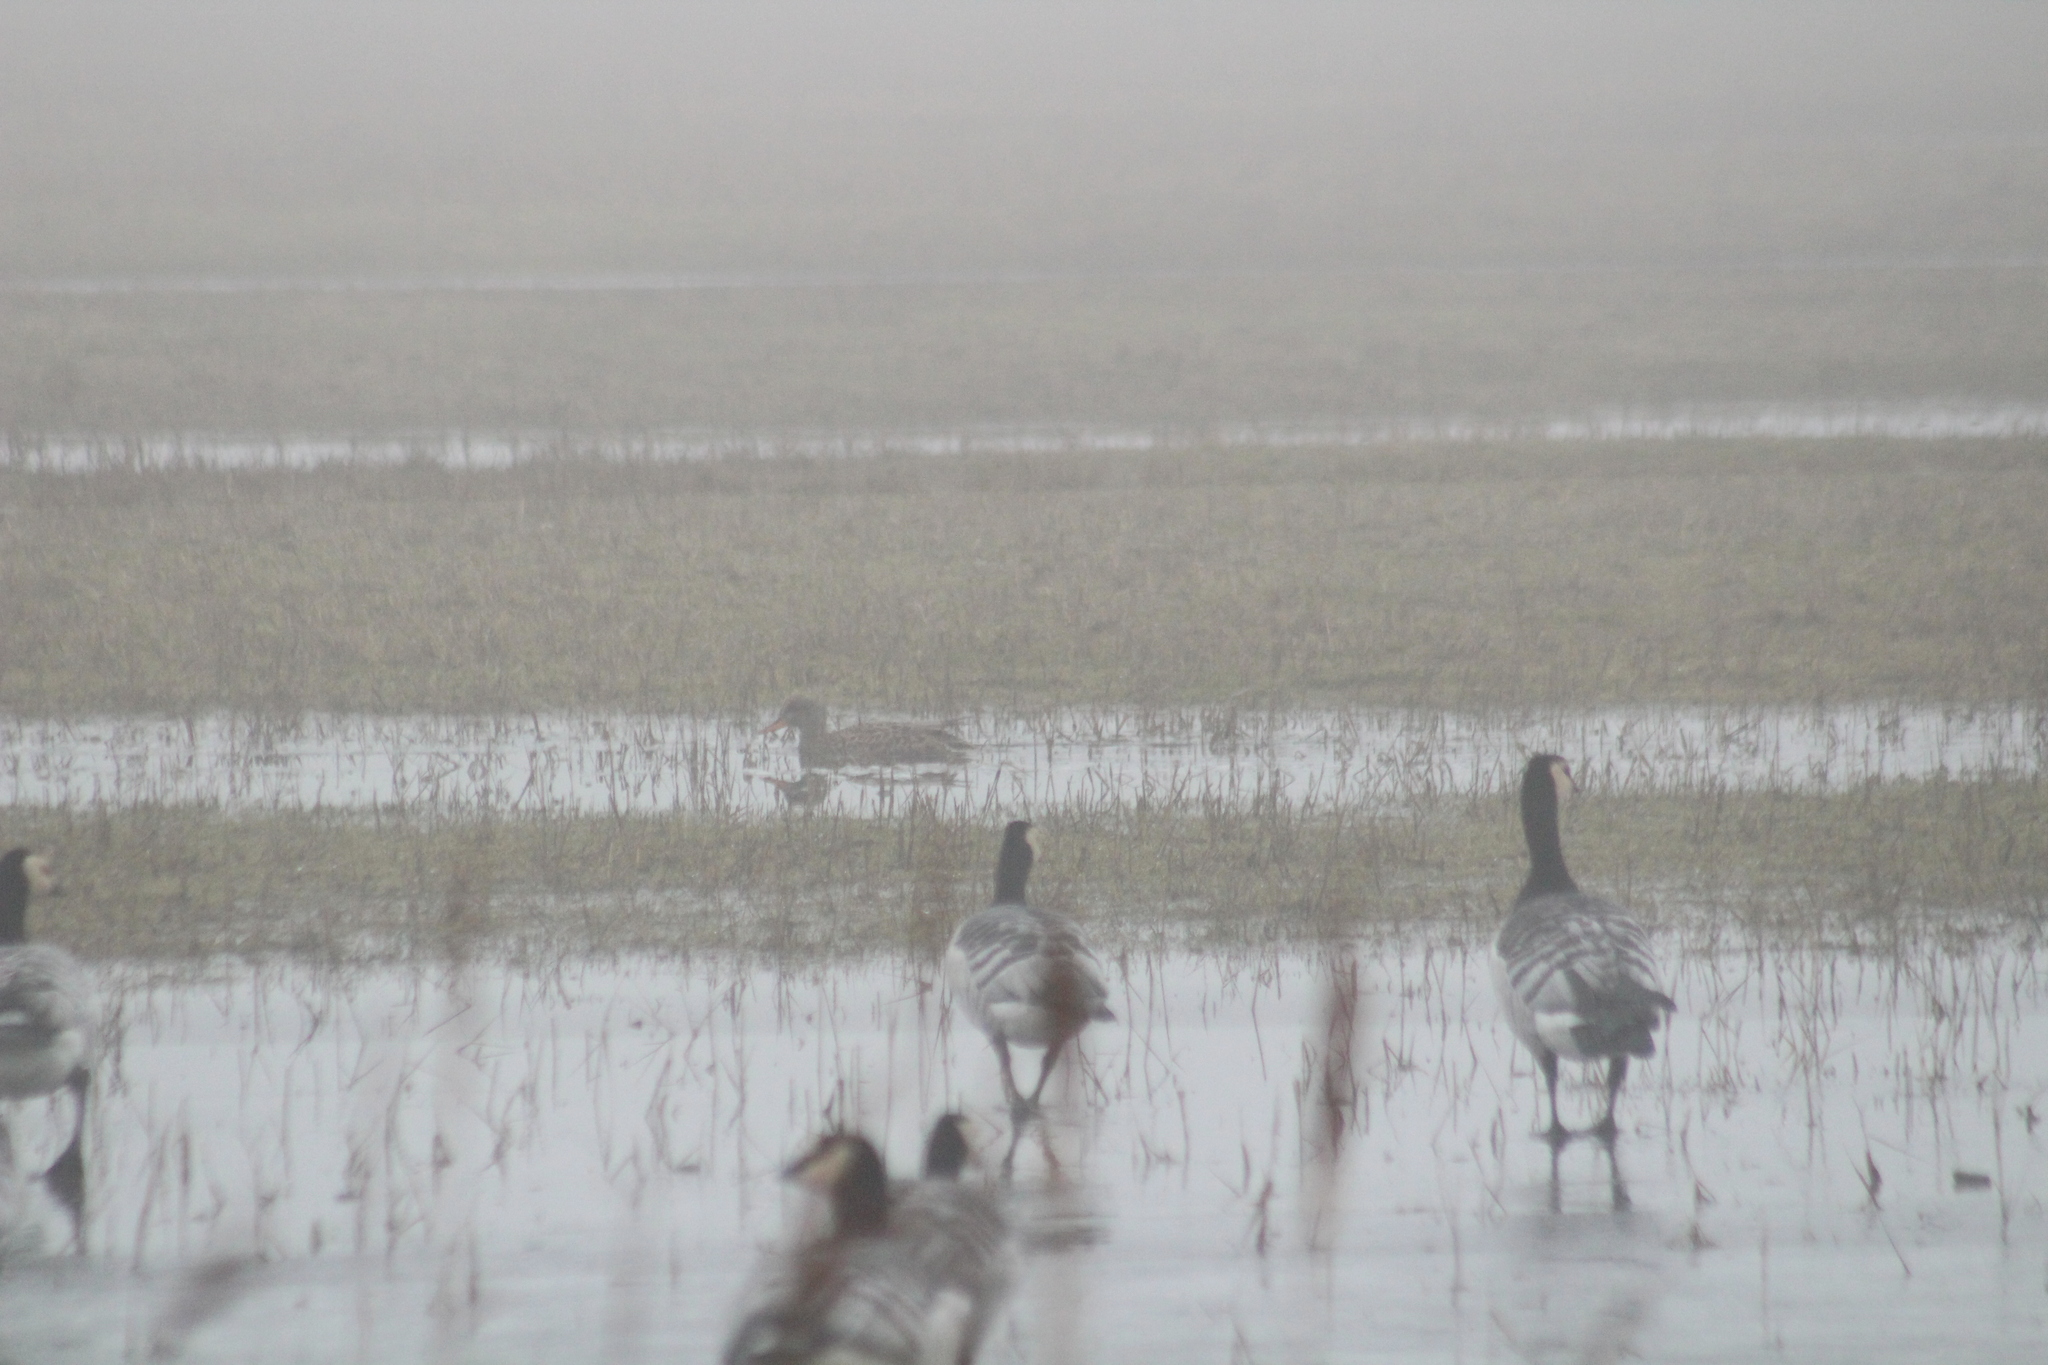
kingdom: Animalia
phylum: Chordata
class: Aves
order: Anseriformes
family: Anatidae
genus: Mareca
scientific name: Mareca strepera
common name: Gadwall
